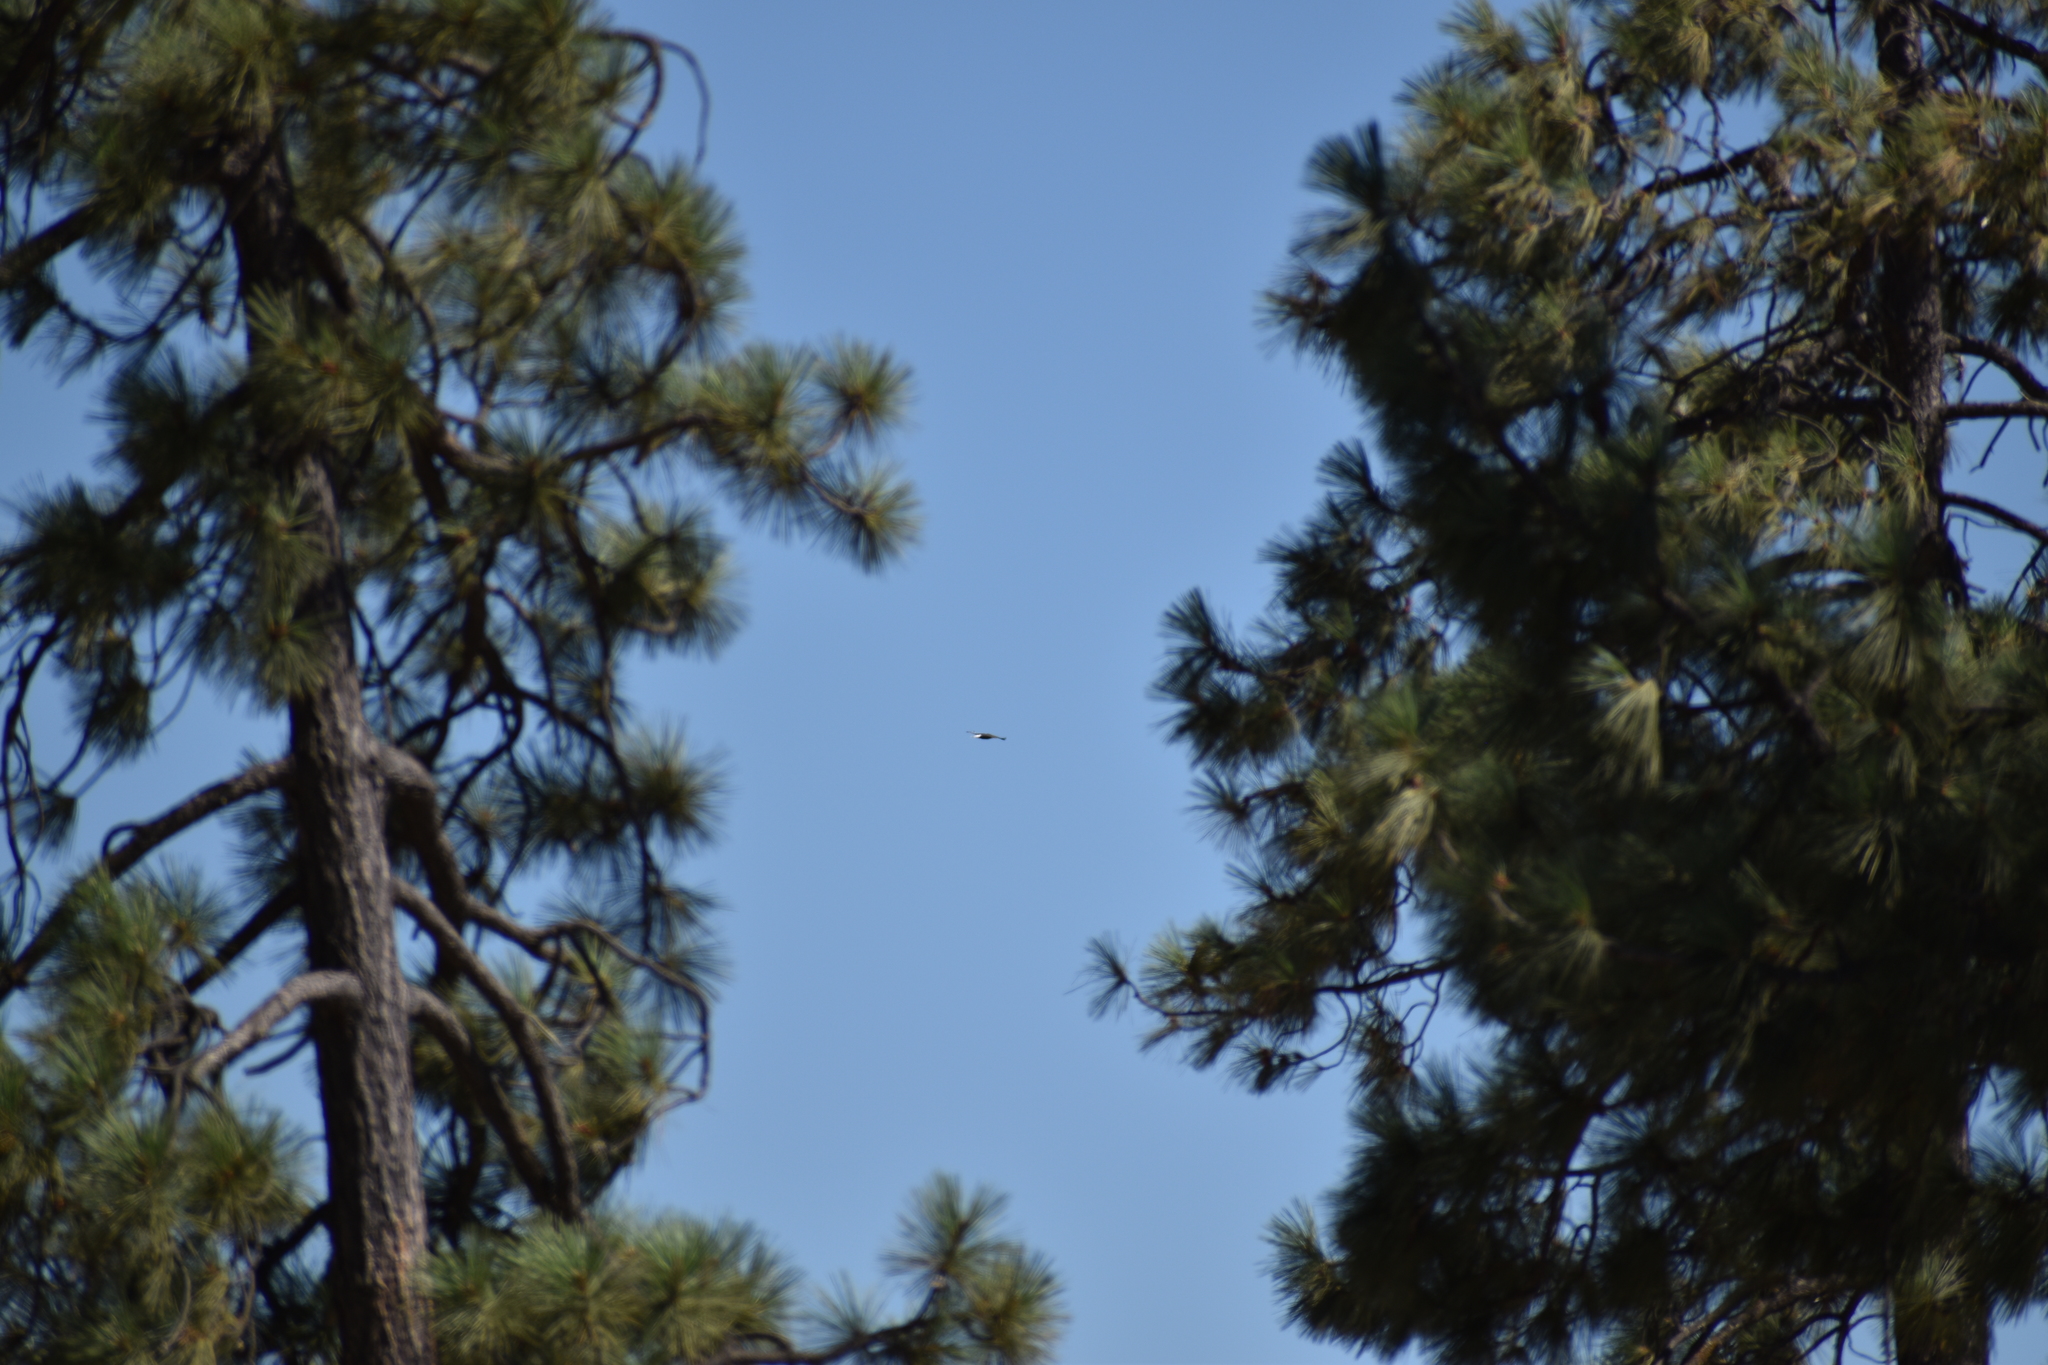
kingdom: Animalia
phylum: Chordata
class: Aves
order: Accipitriformes
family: Accipitridae
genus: Haliaeetus
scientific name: Haliaeetus leucocephalus
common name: Bald eagle
